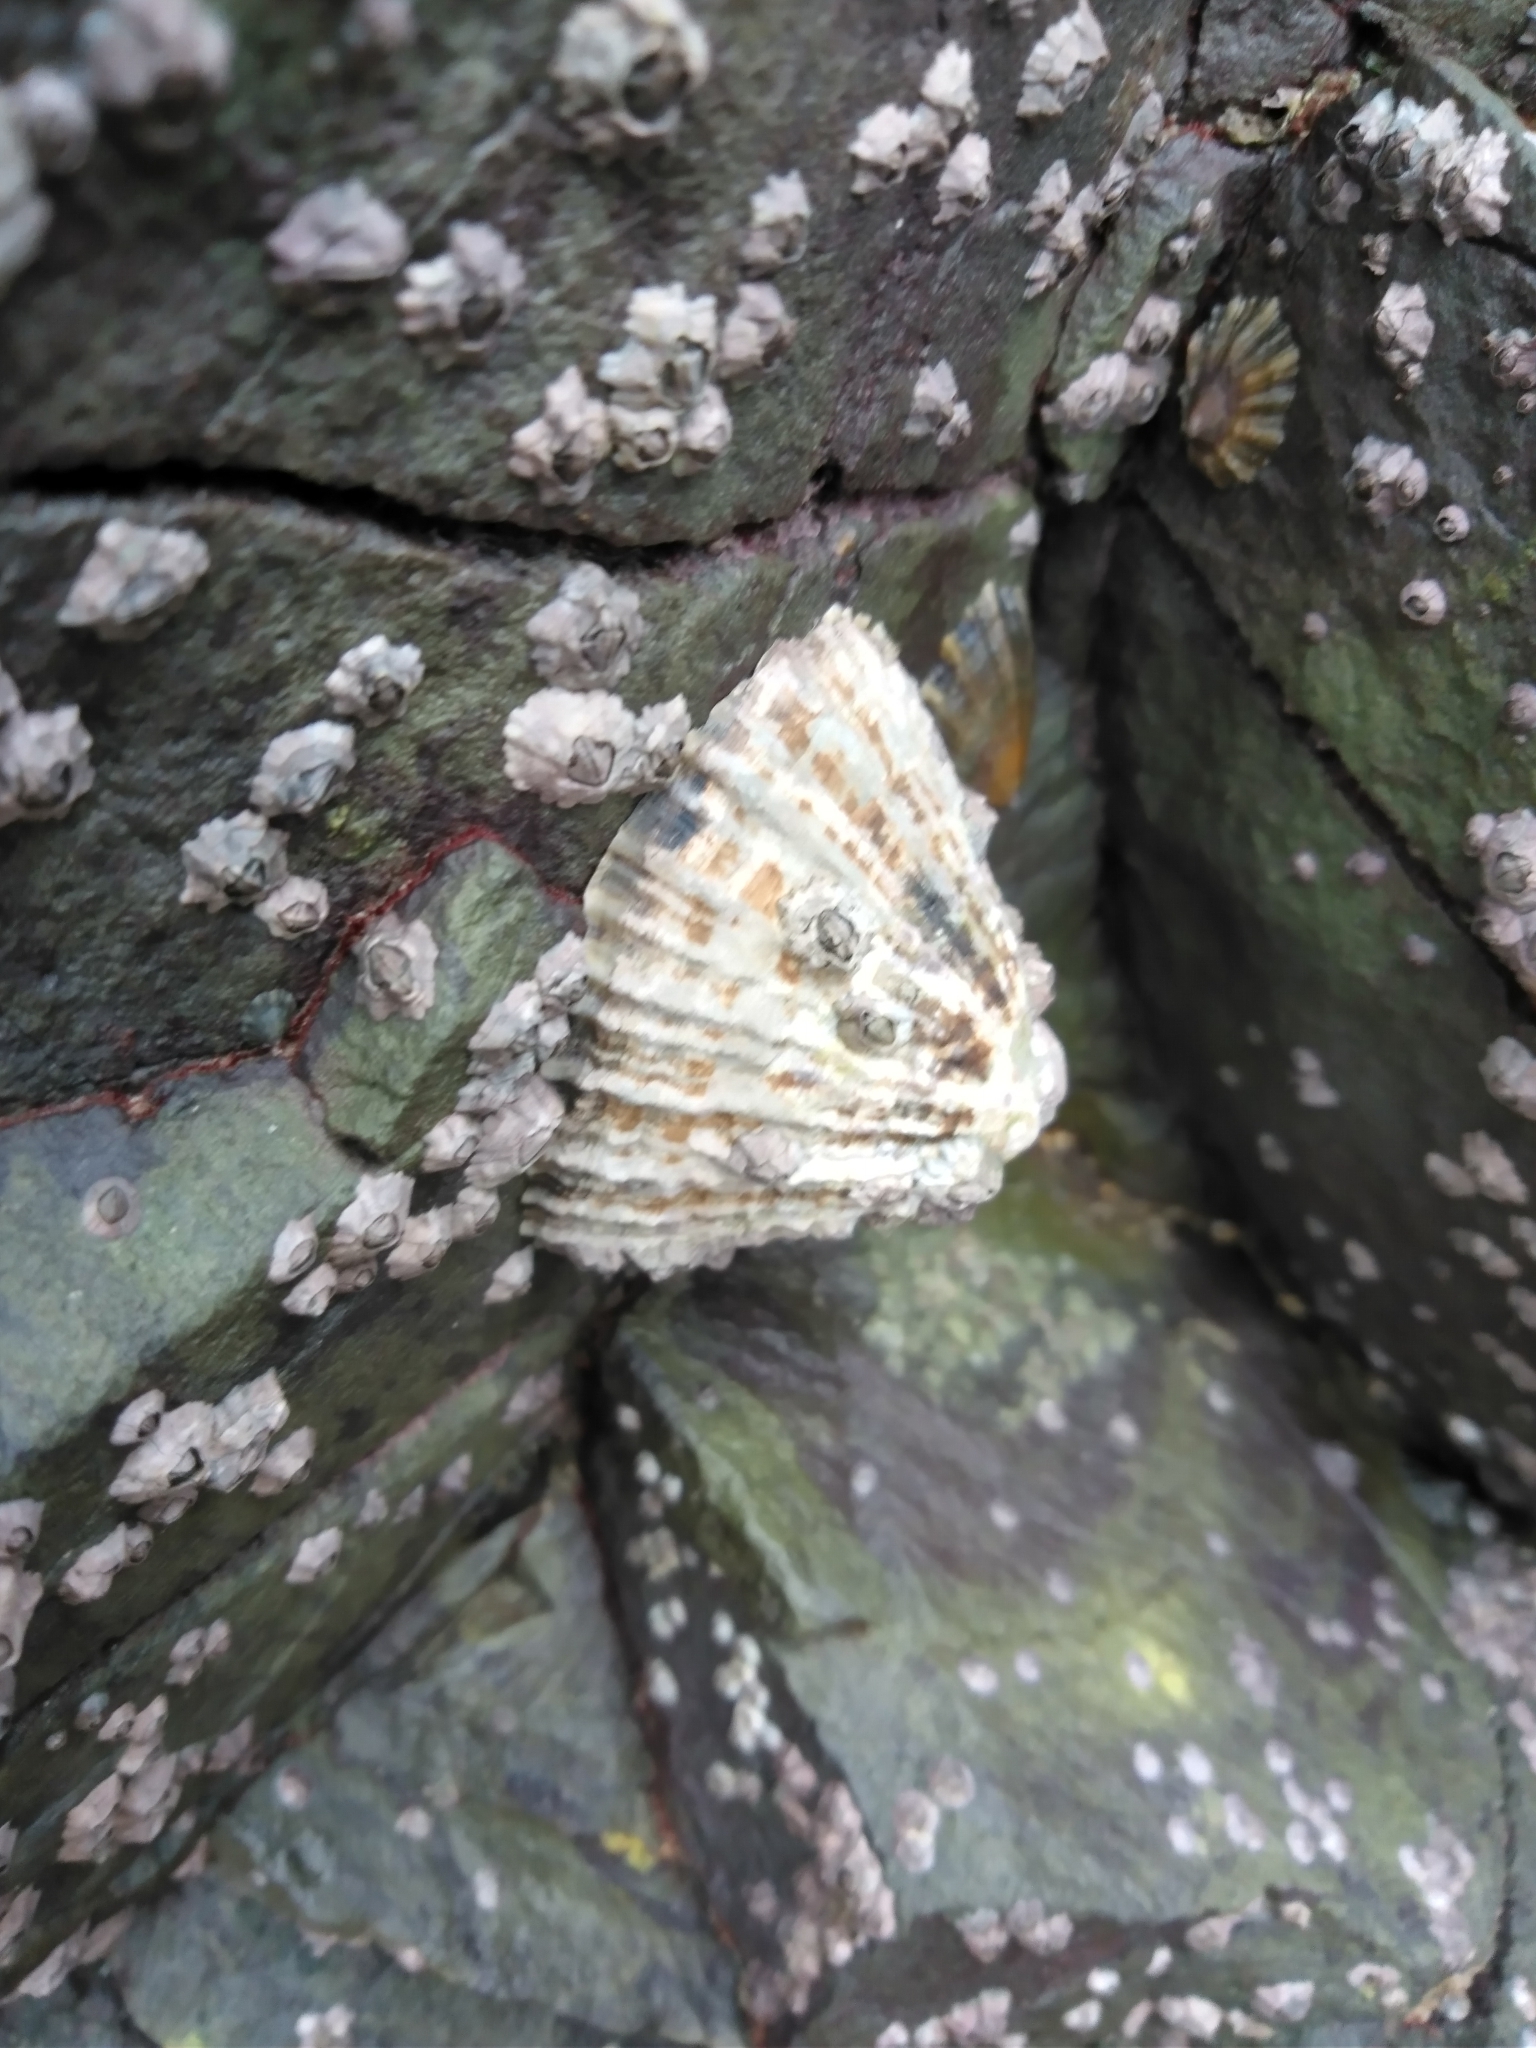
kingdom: Animalia
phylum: Mollusca
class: Gastropoda
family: Patellidae
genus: Patella
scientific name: Patella vulgata
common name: Common limpet
